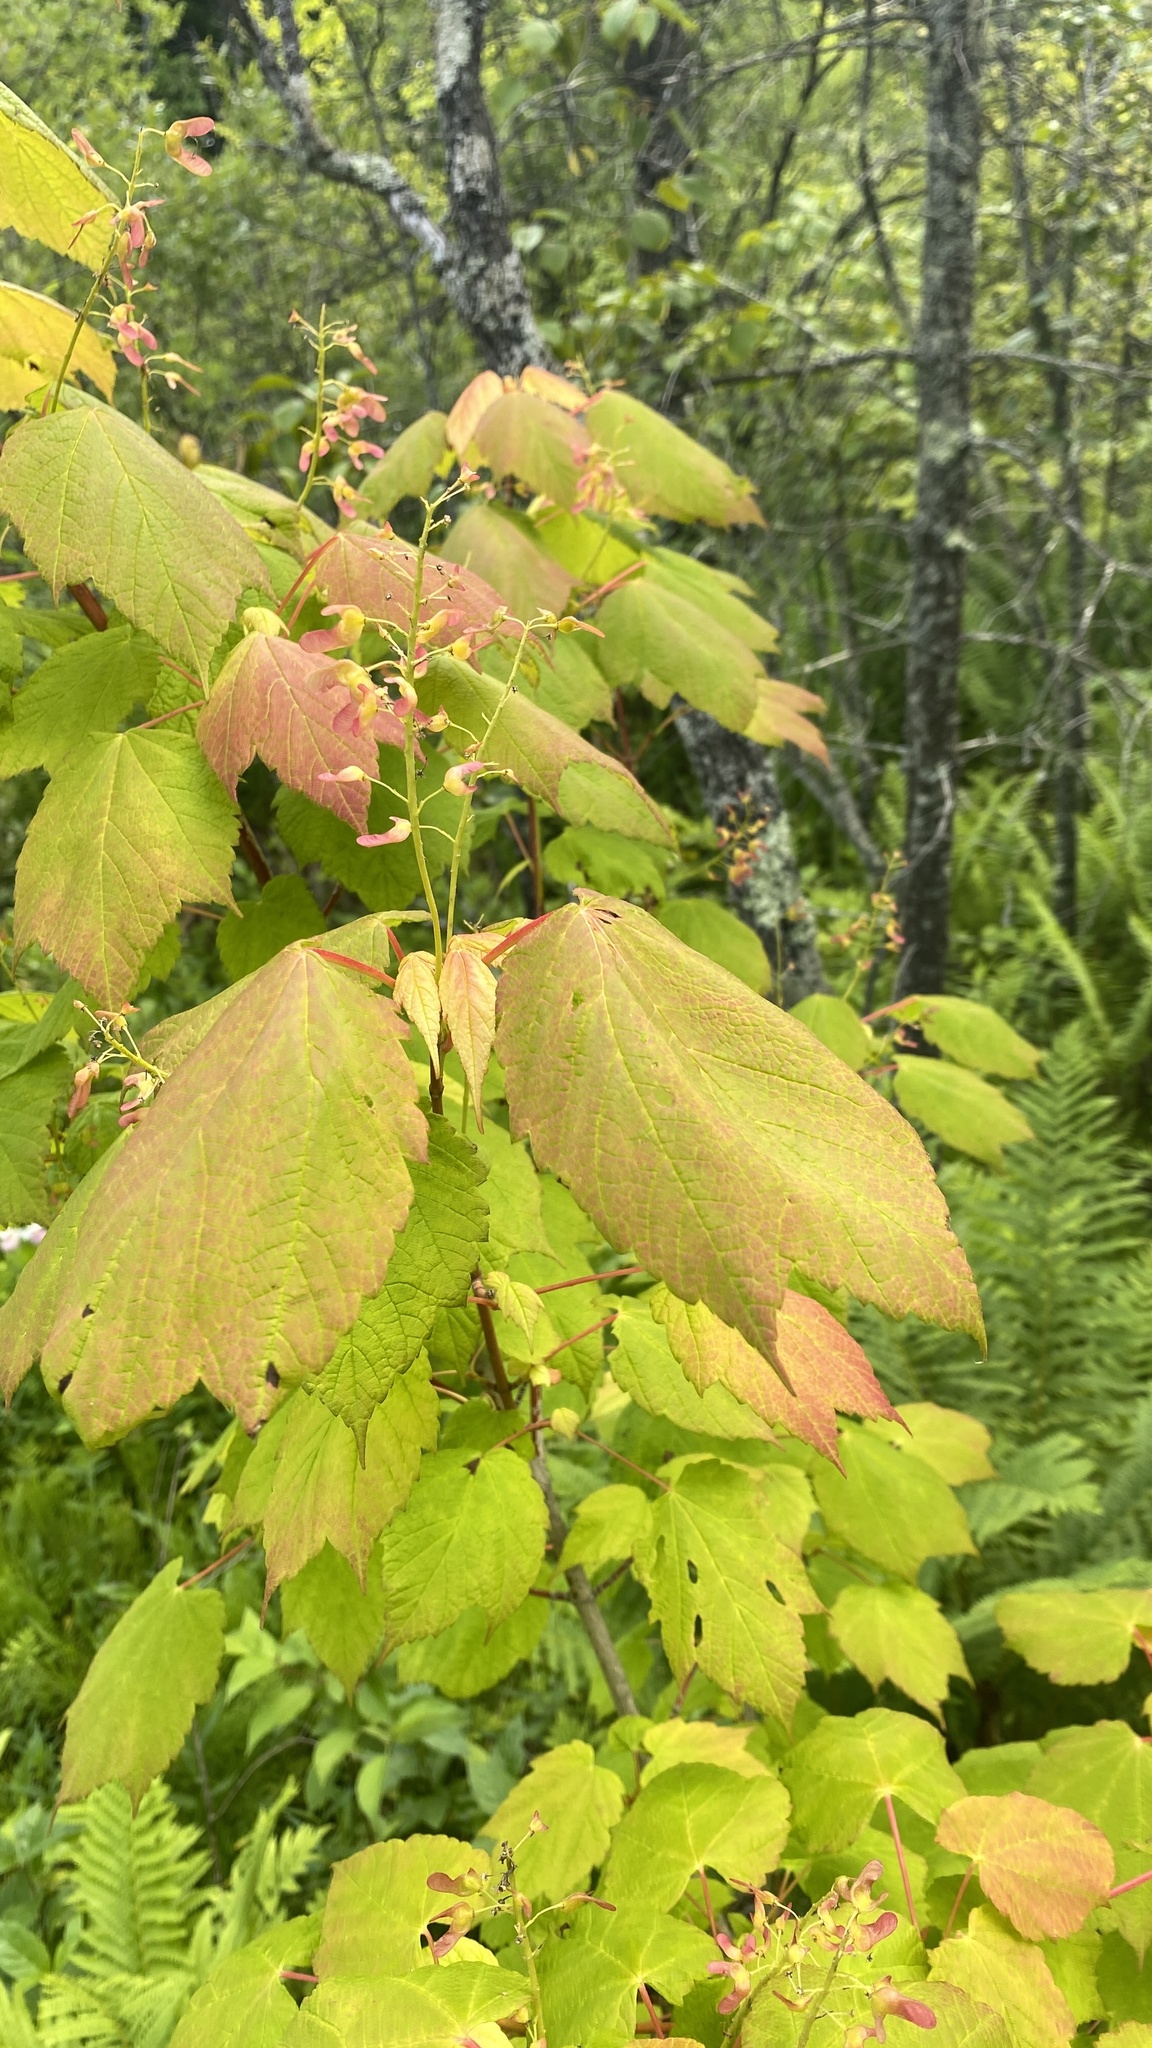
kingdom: Plantae
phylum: Tracheophyta
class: Magnoliopsida
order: Sapindales
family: Sapindaceae
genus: Acer
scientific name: Acer spicatum
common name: Mountain maple
